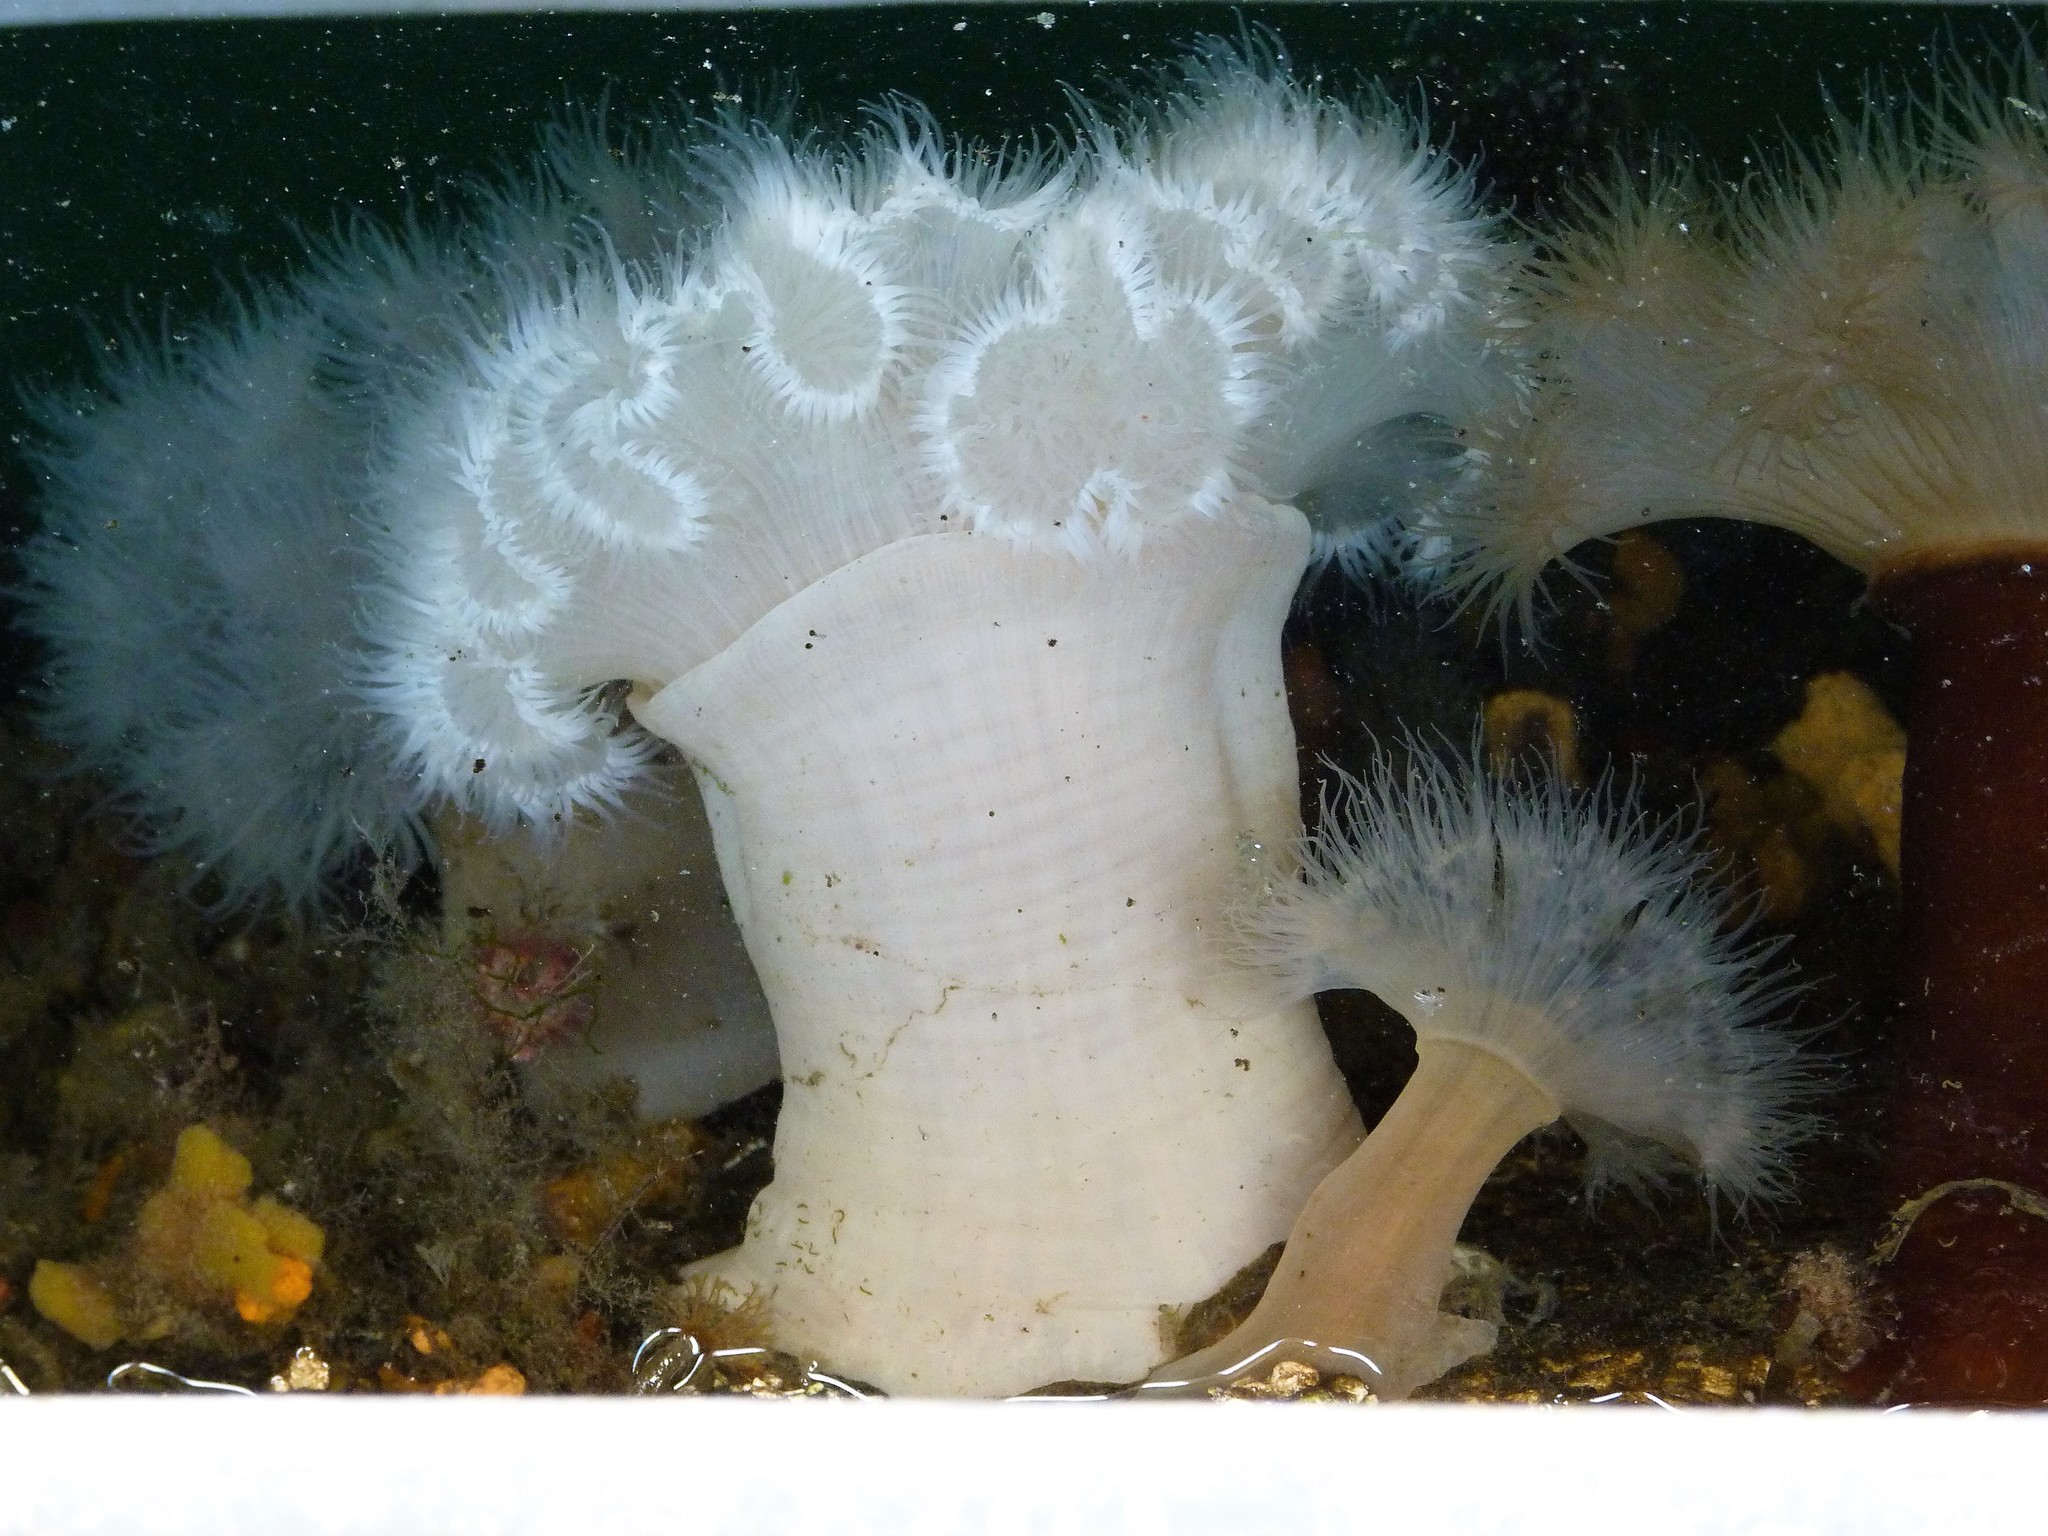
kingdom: Animalia
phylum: Cnidaria
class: Anthozoa
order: Actiniaria
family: Metridiidae
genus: Metridium
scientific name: Metridium senile
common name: Clonal plumose anemone
